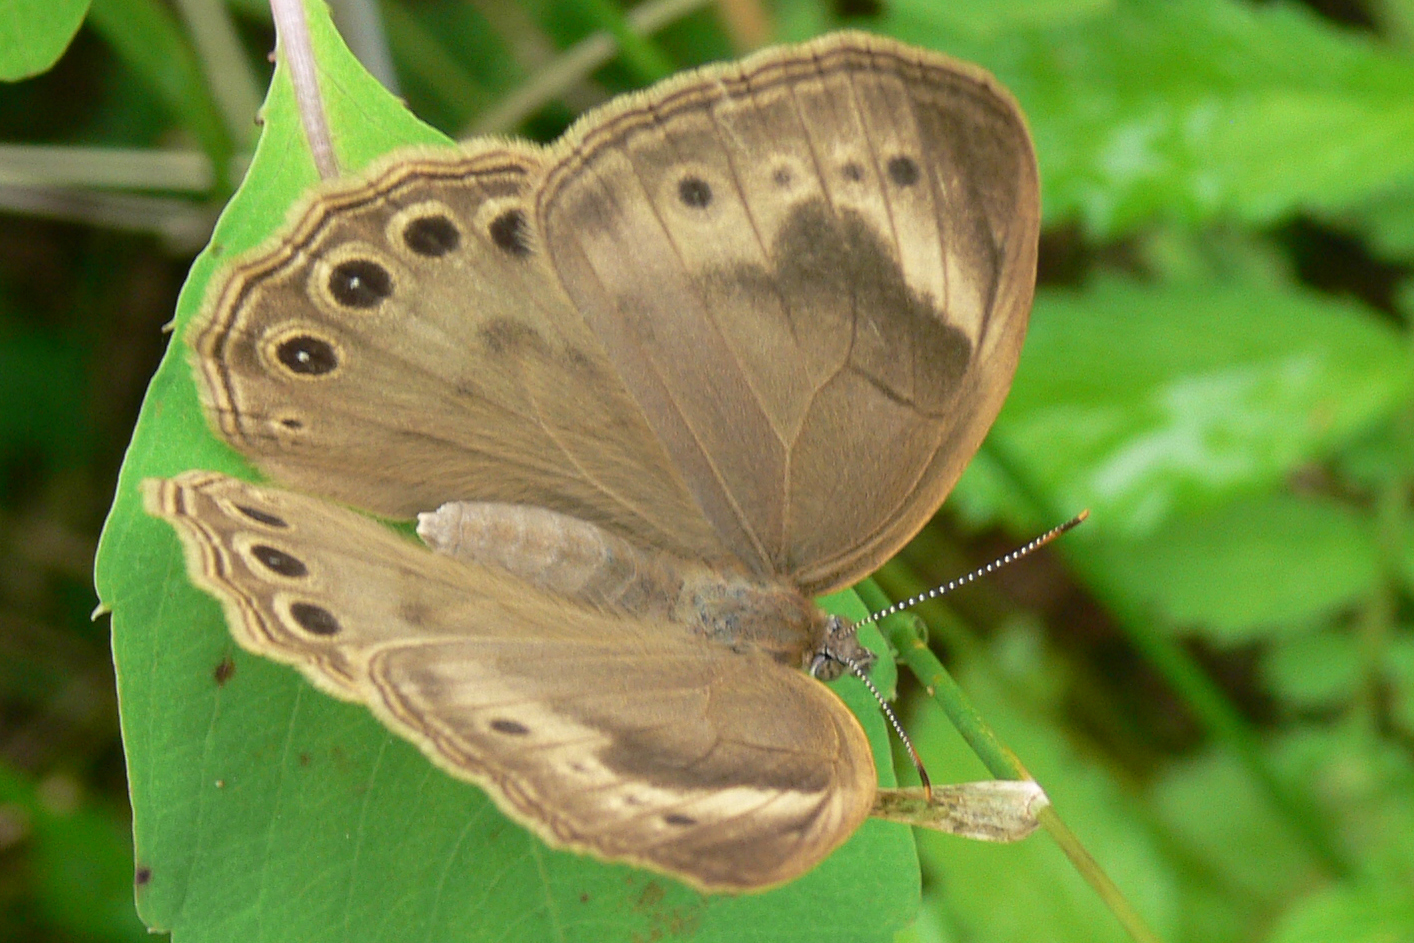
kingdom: Animalia
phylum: Arthropoda
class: Insecta
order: Lepidoptera
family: Nymphalidae
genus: Lethe
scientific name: Lethe eurydice
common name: Eyed brown
